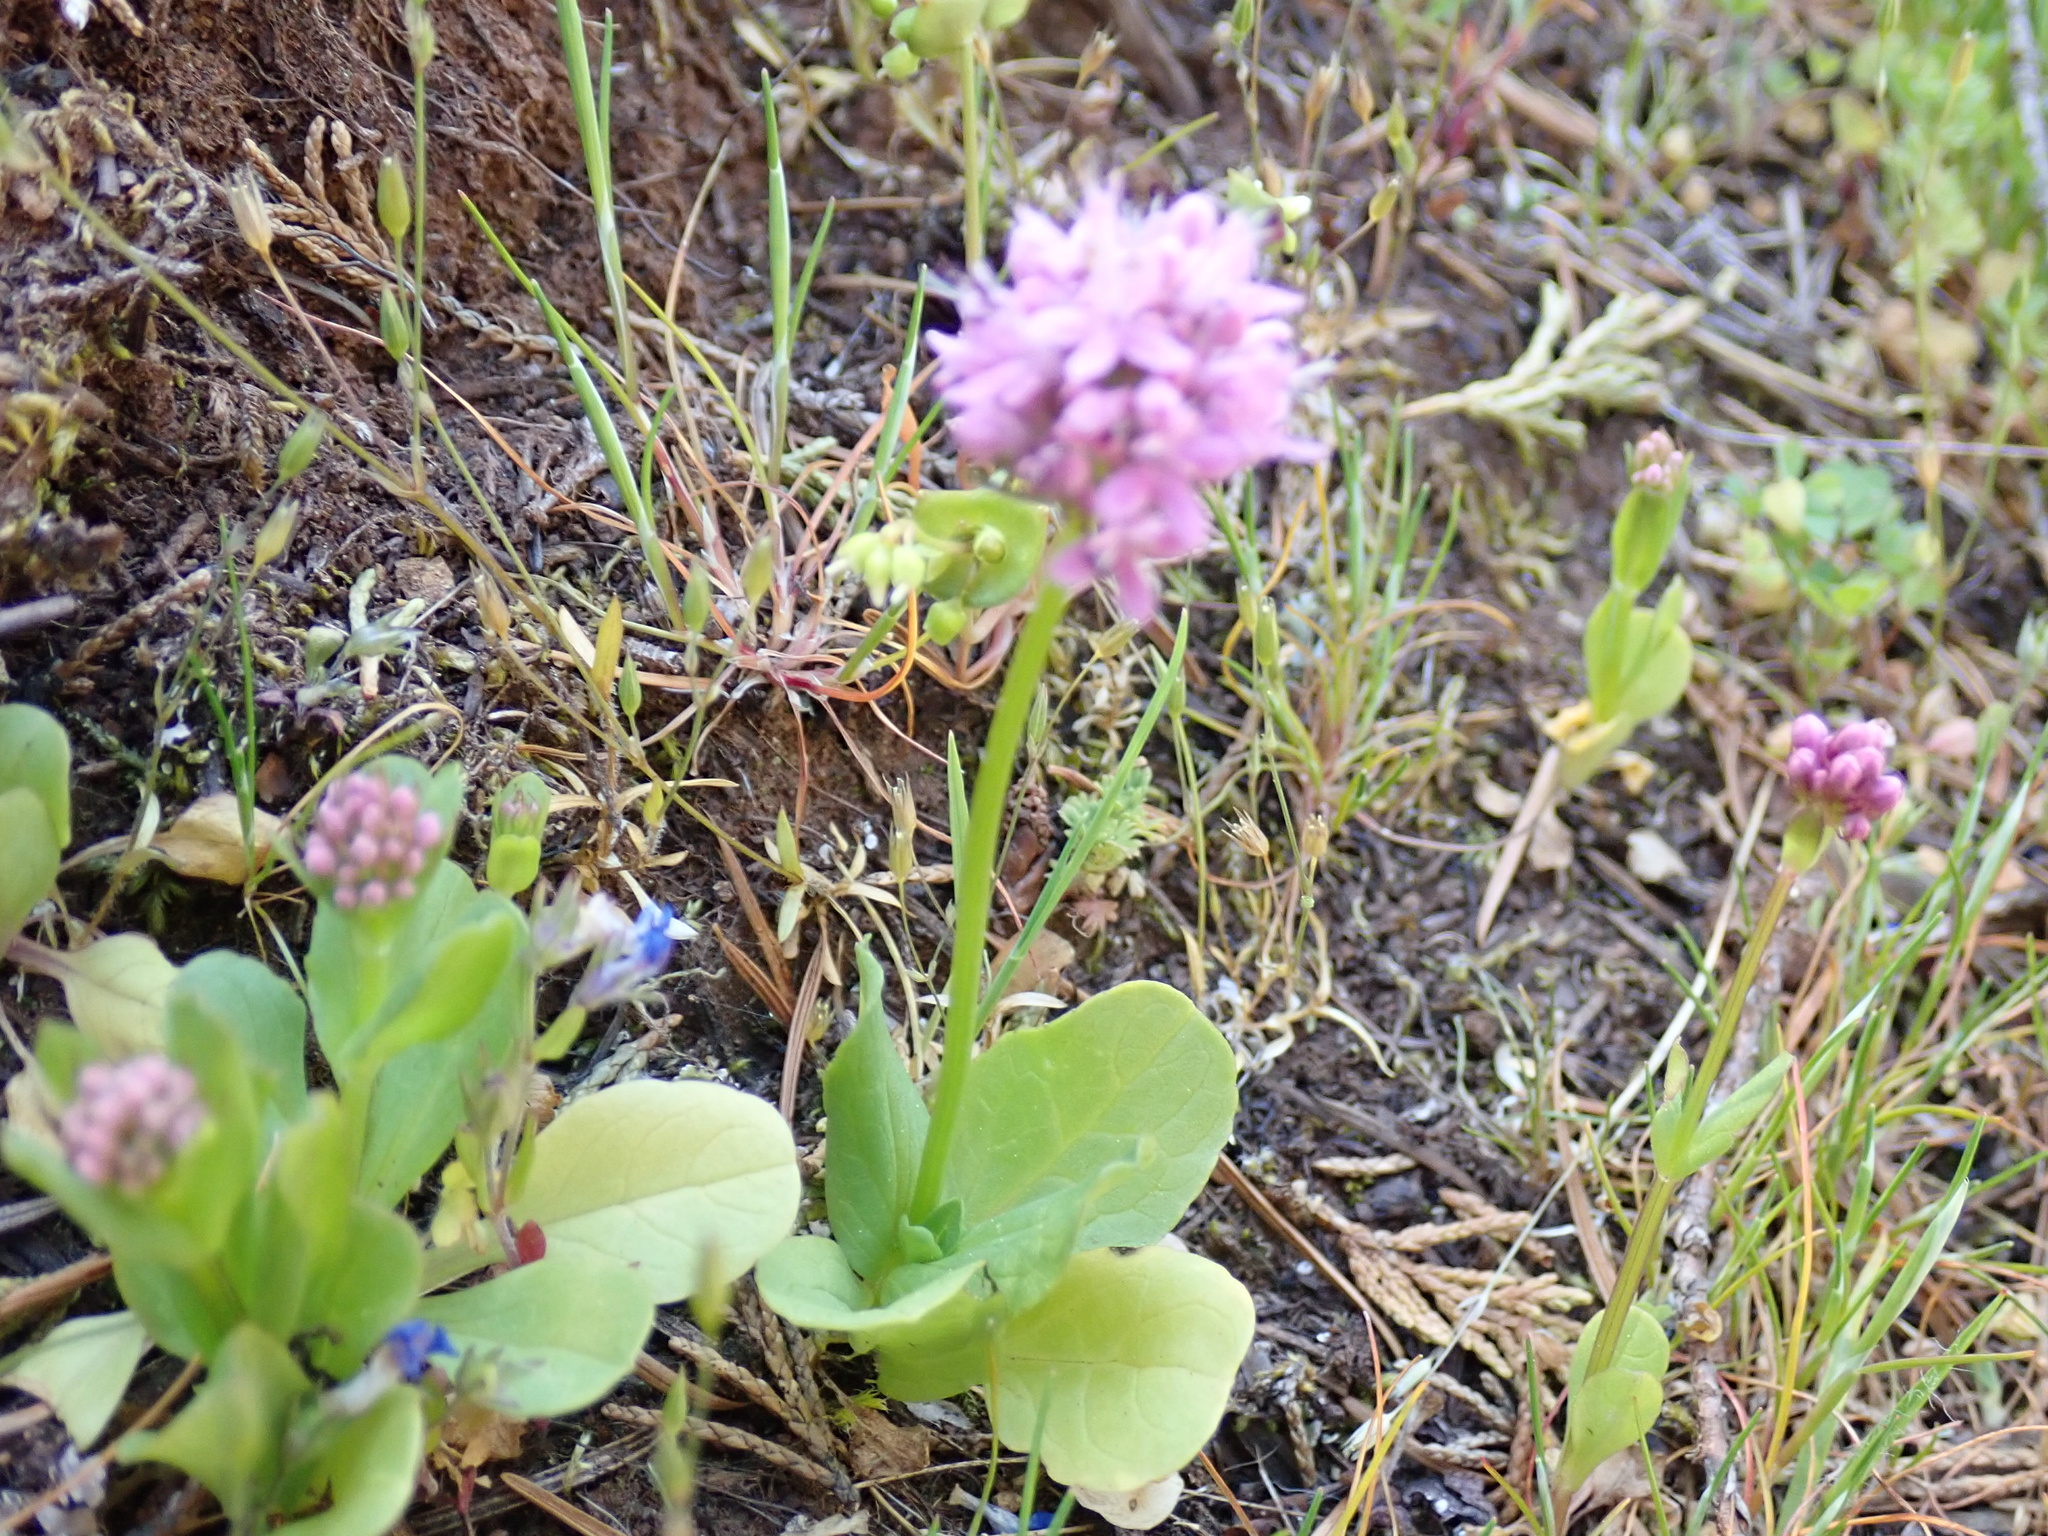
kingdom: Plantae
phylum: Tracheophyta
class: Magnoliopsida
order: Dipsacales
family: Caprifoliaceae
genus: Plectritis
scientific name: Plectritis congesta
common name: Pink plectritis
